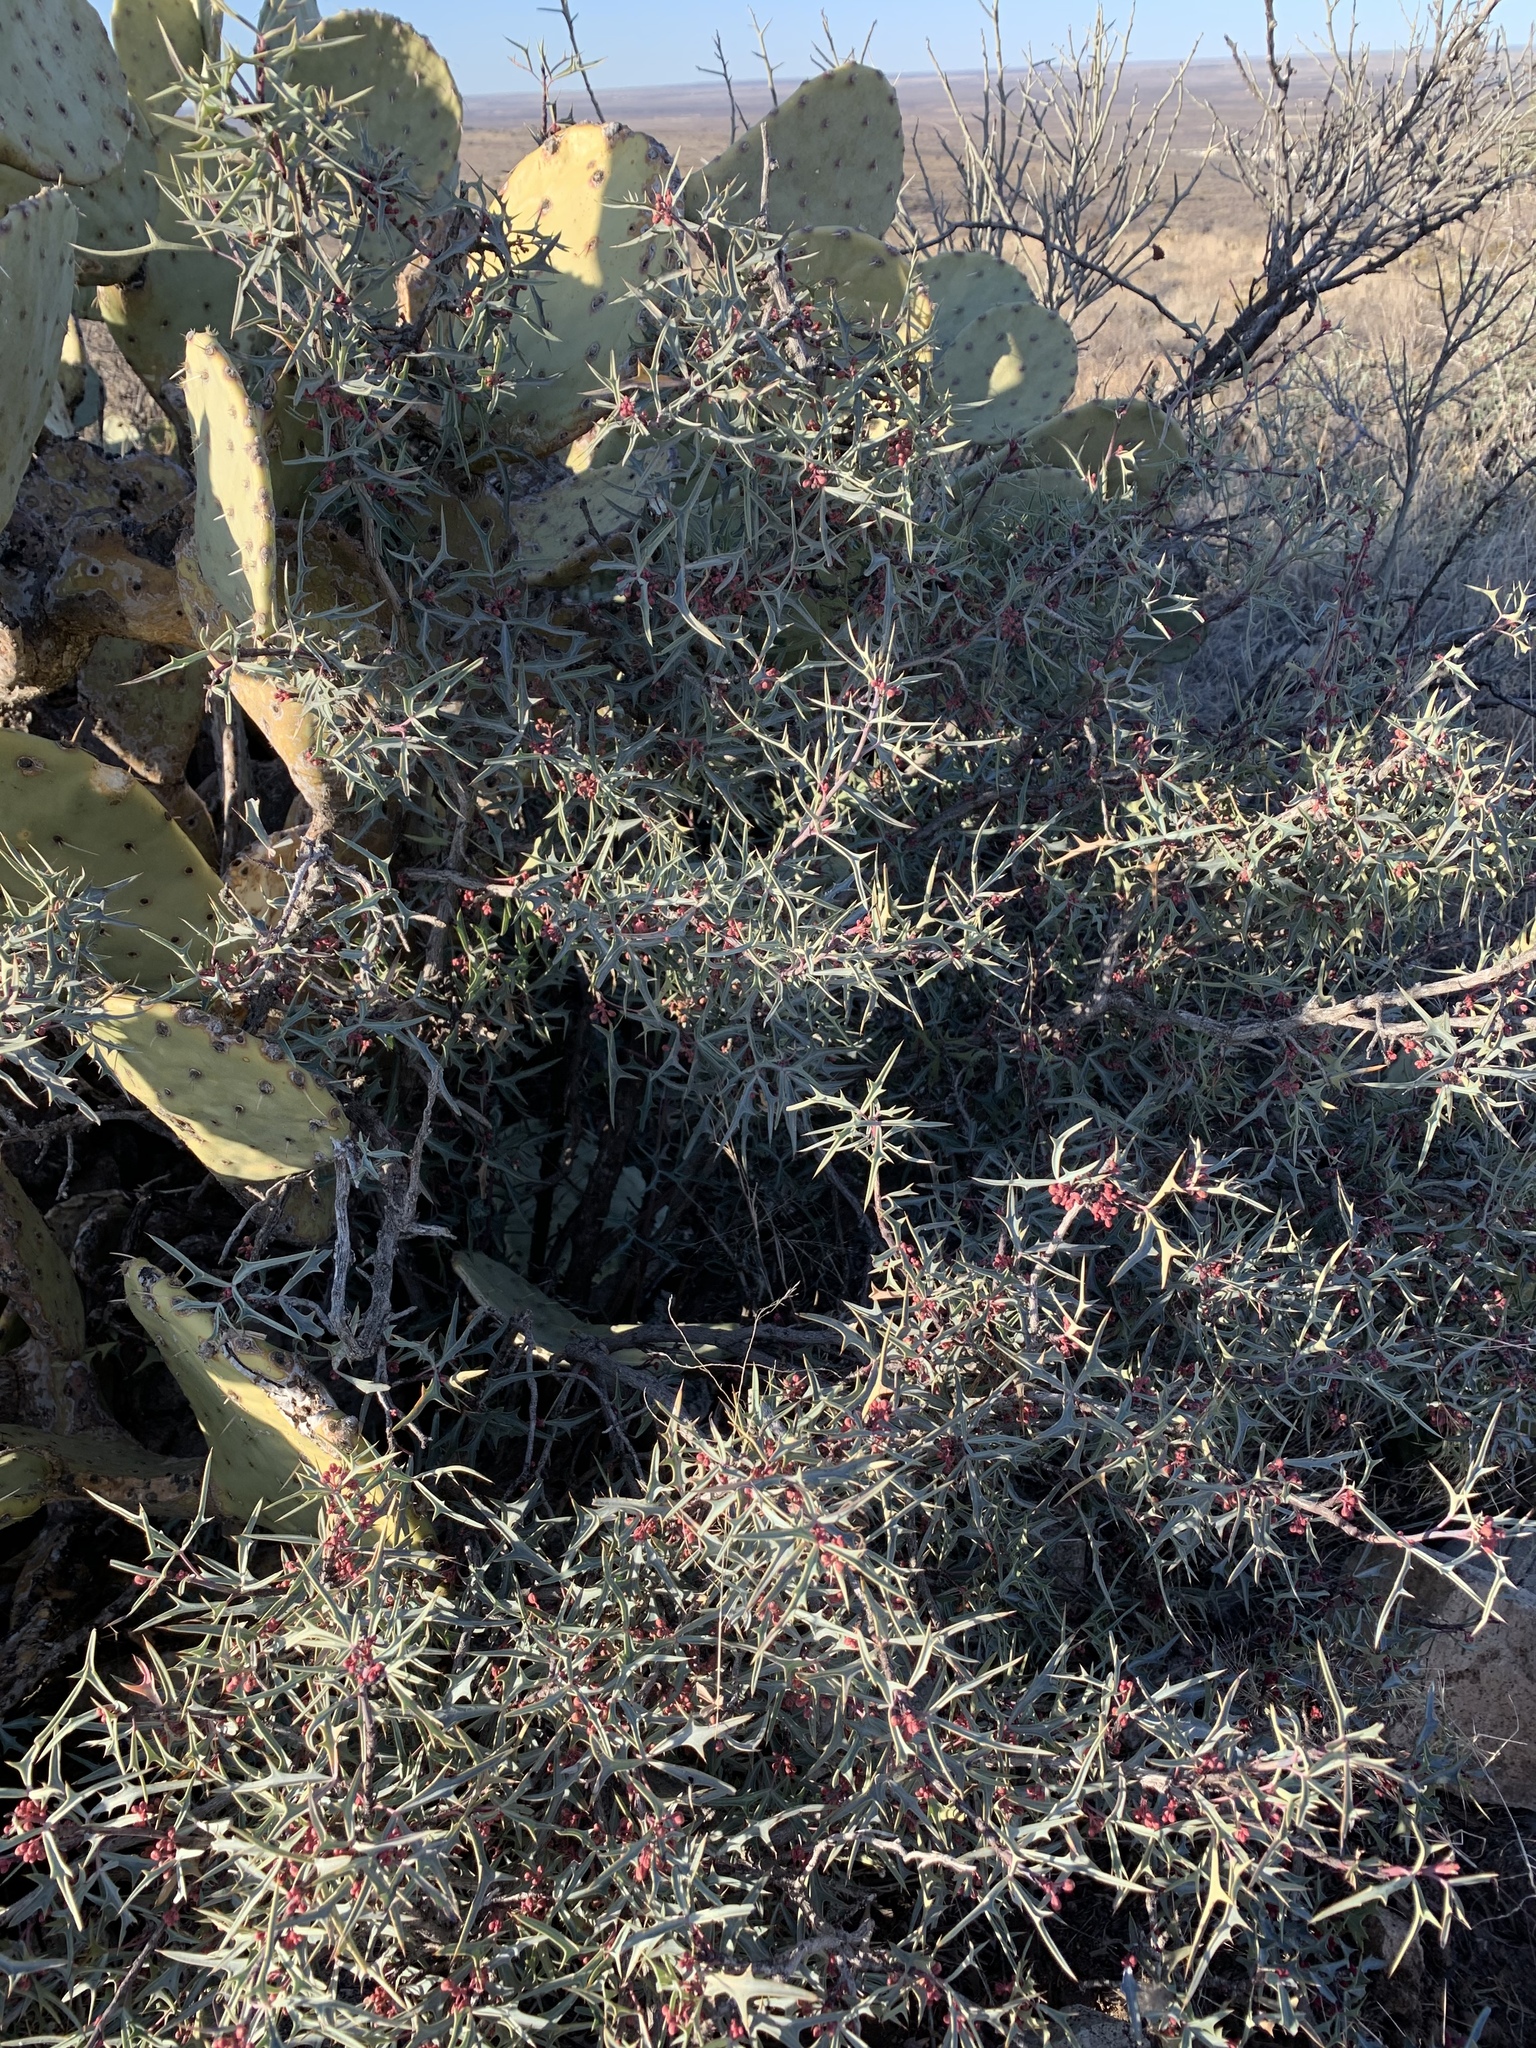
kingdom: Plantae
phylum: Tracheophyta
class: Magnoliopsida
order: Ranunculales
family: Berberidaceae
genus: Alloberberis
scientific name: Alloberberis trifoliolata
